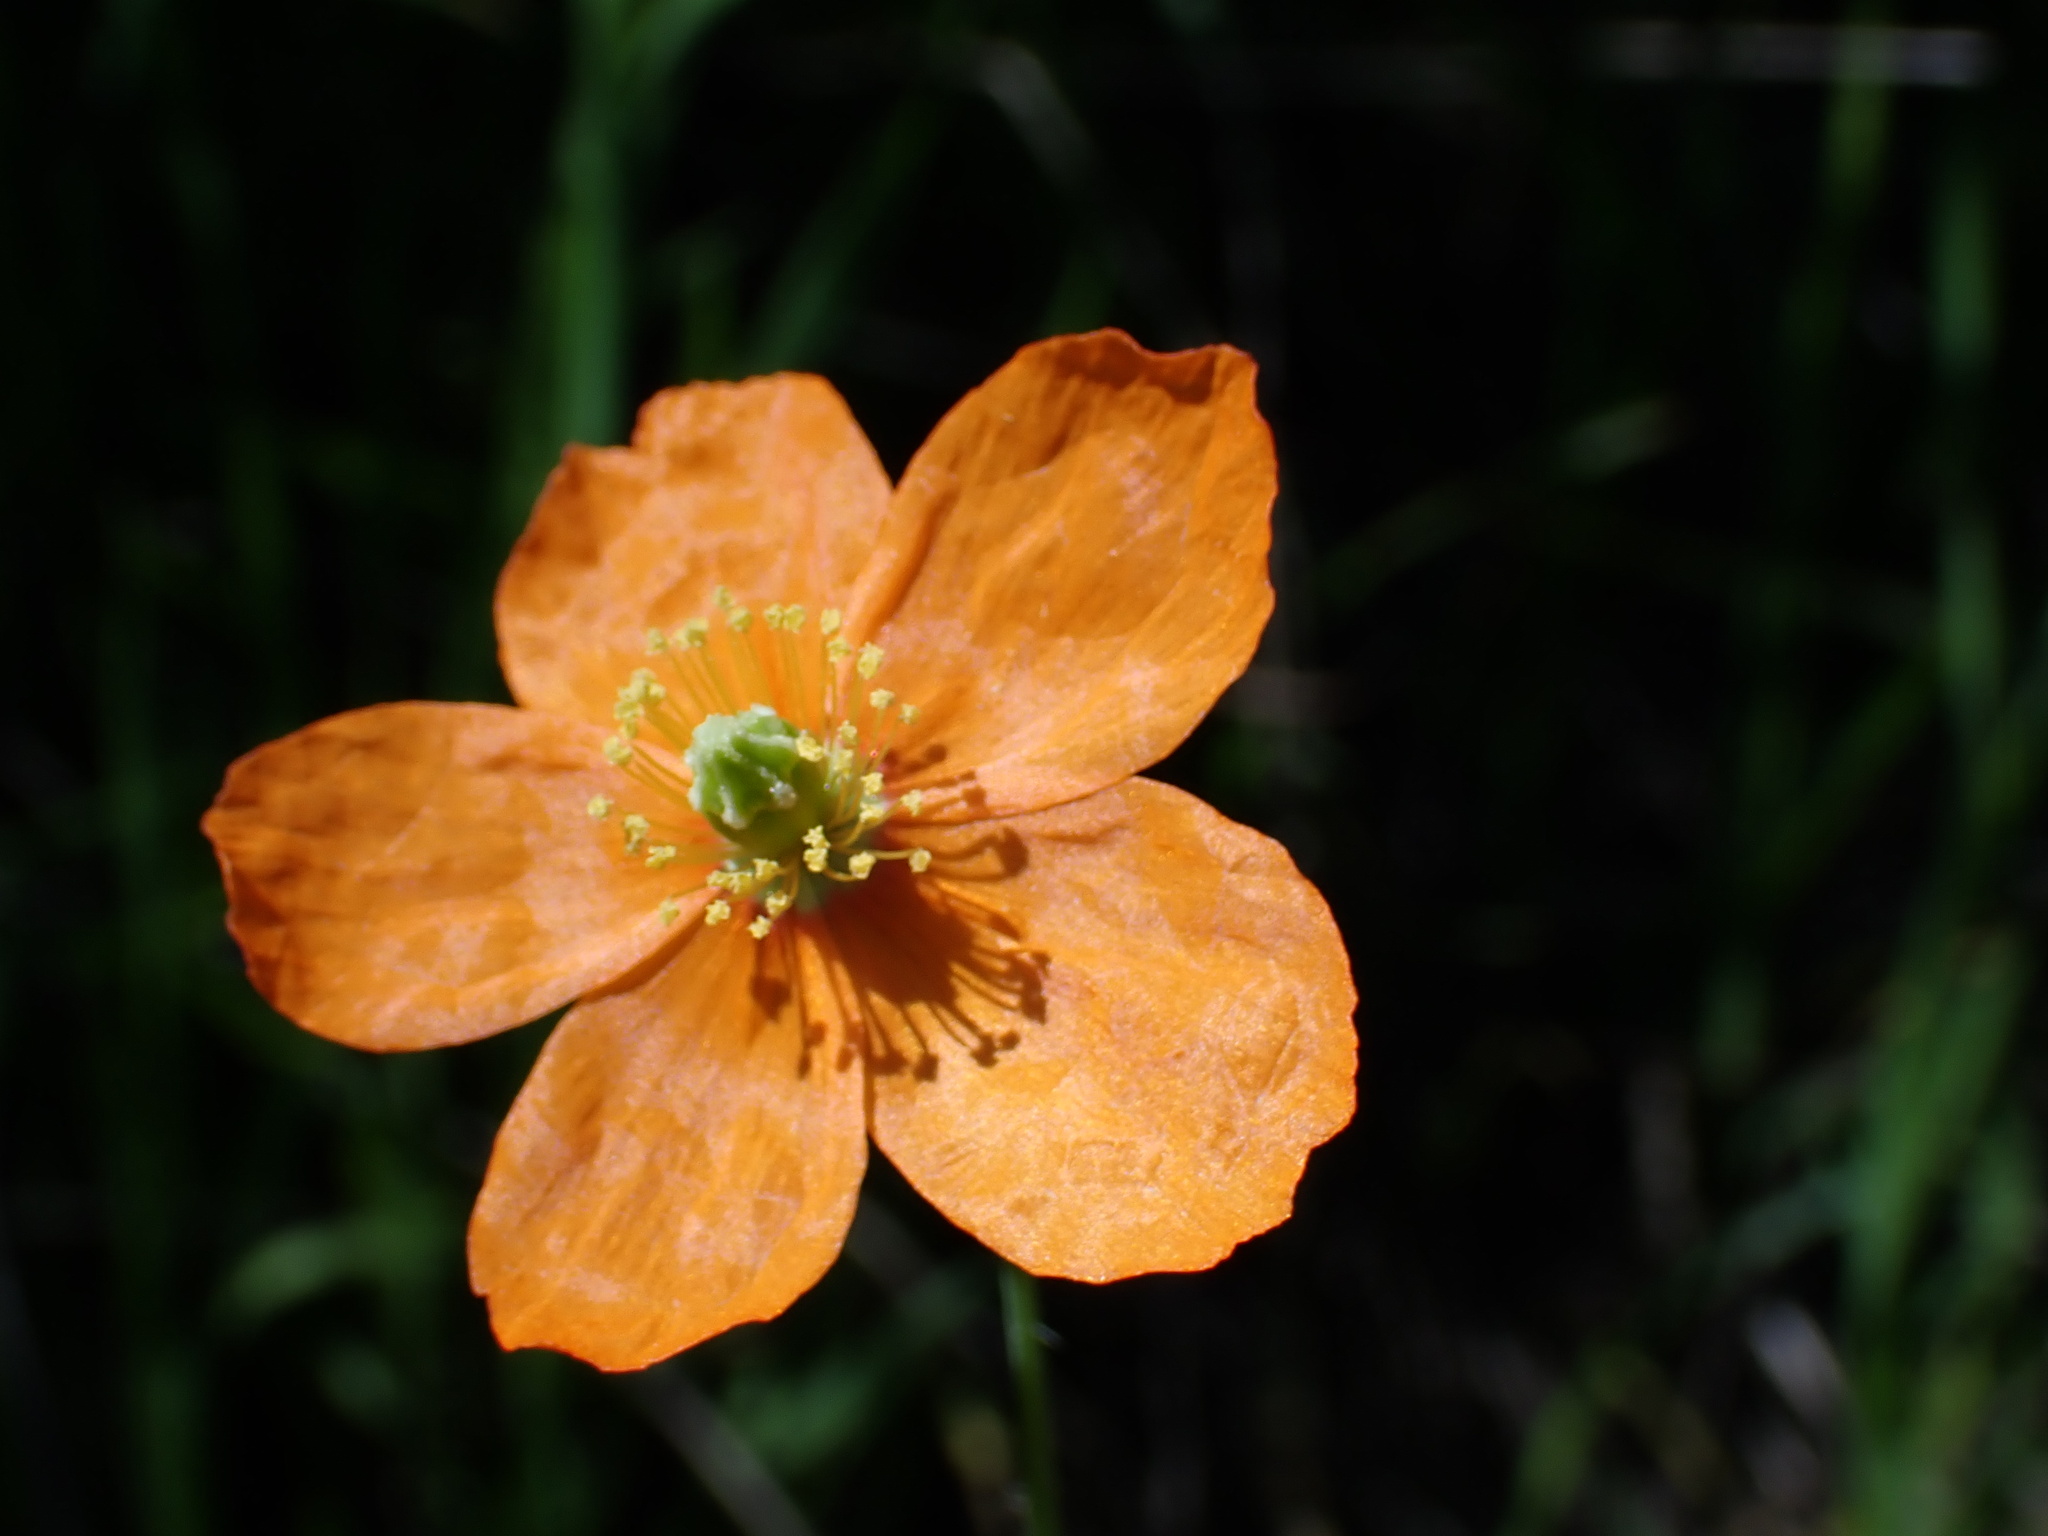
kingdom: Plantae
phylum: Tracheophyta
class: Magnoliopsida
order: Ranunculales
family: Papaveraceae
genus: Papaver
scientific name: Papaver californicum
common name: Fire poppy
